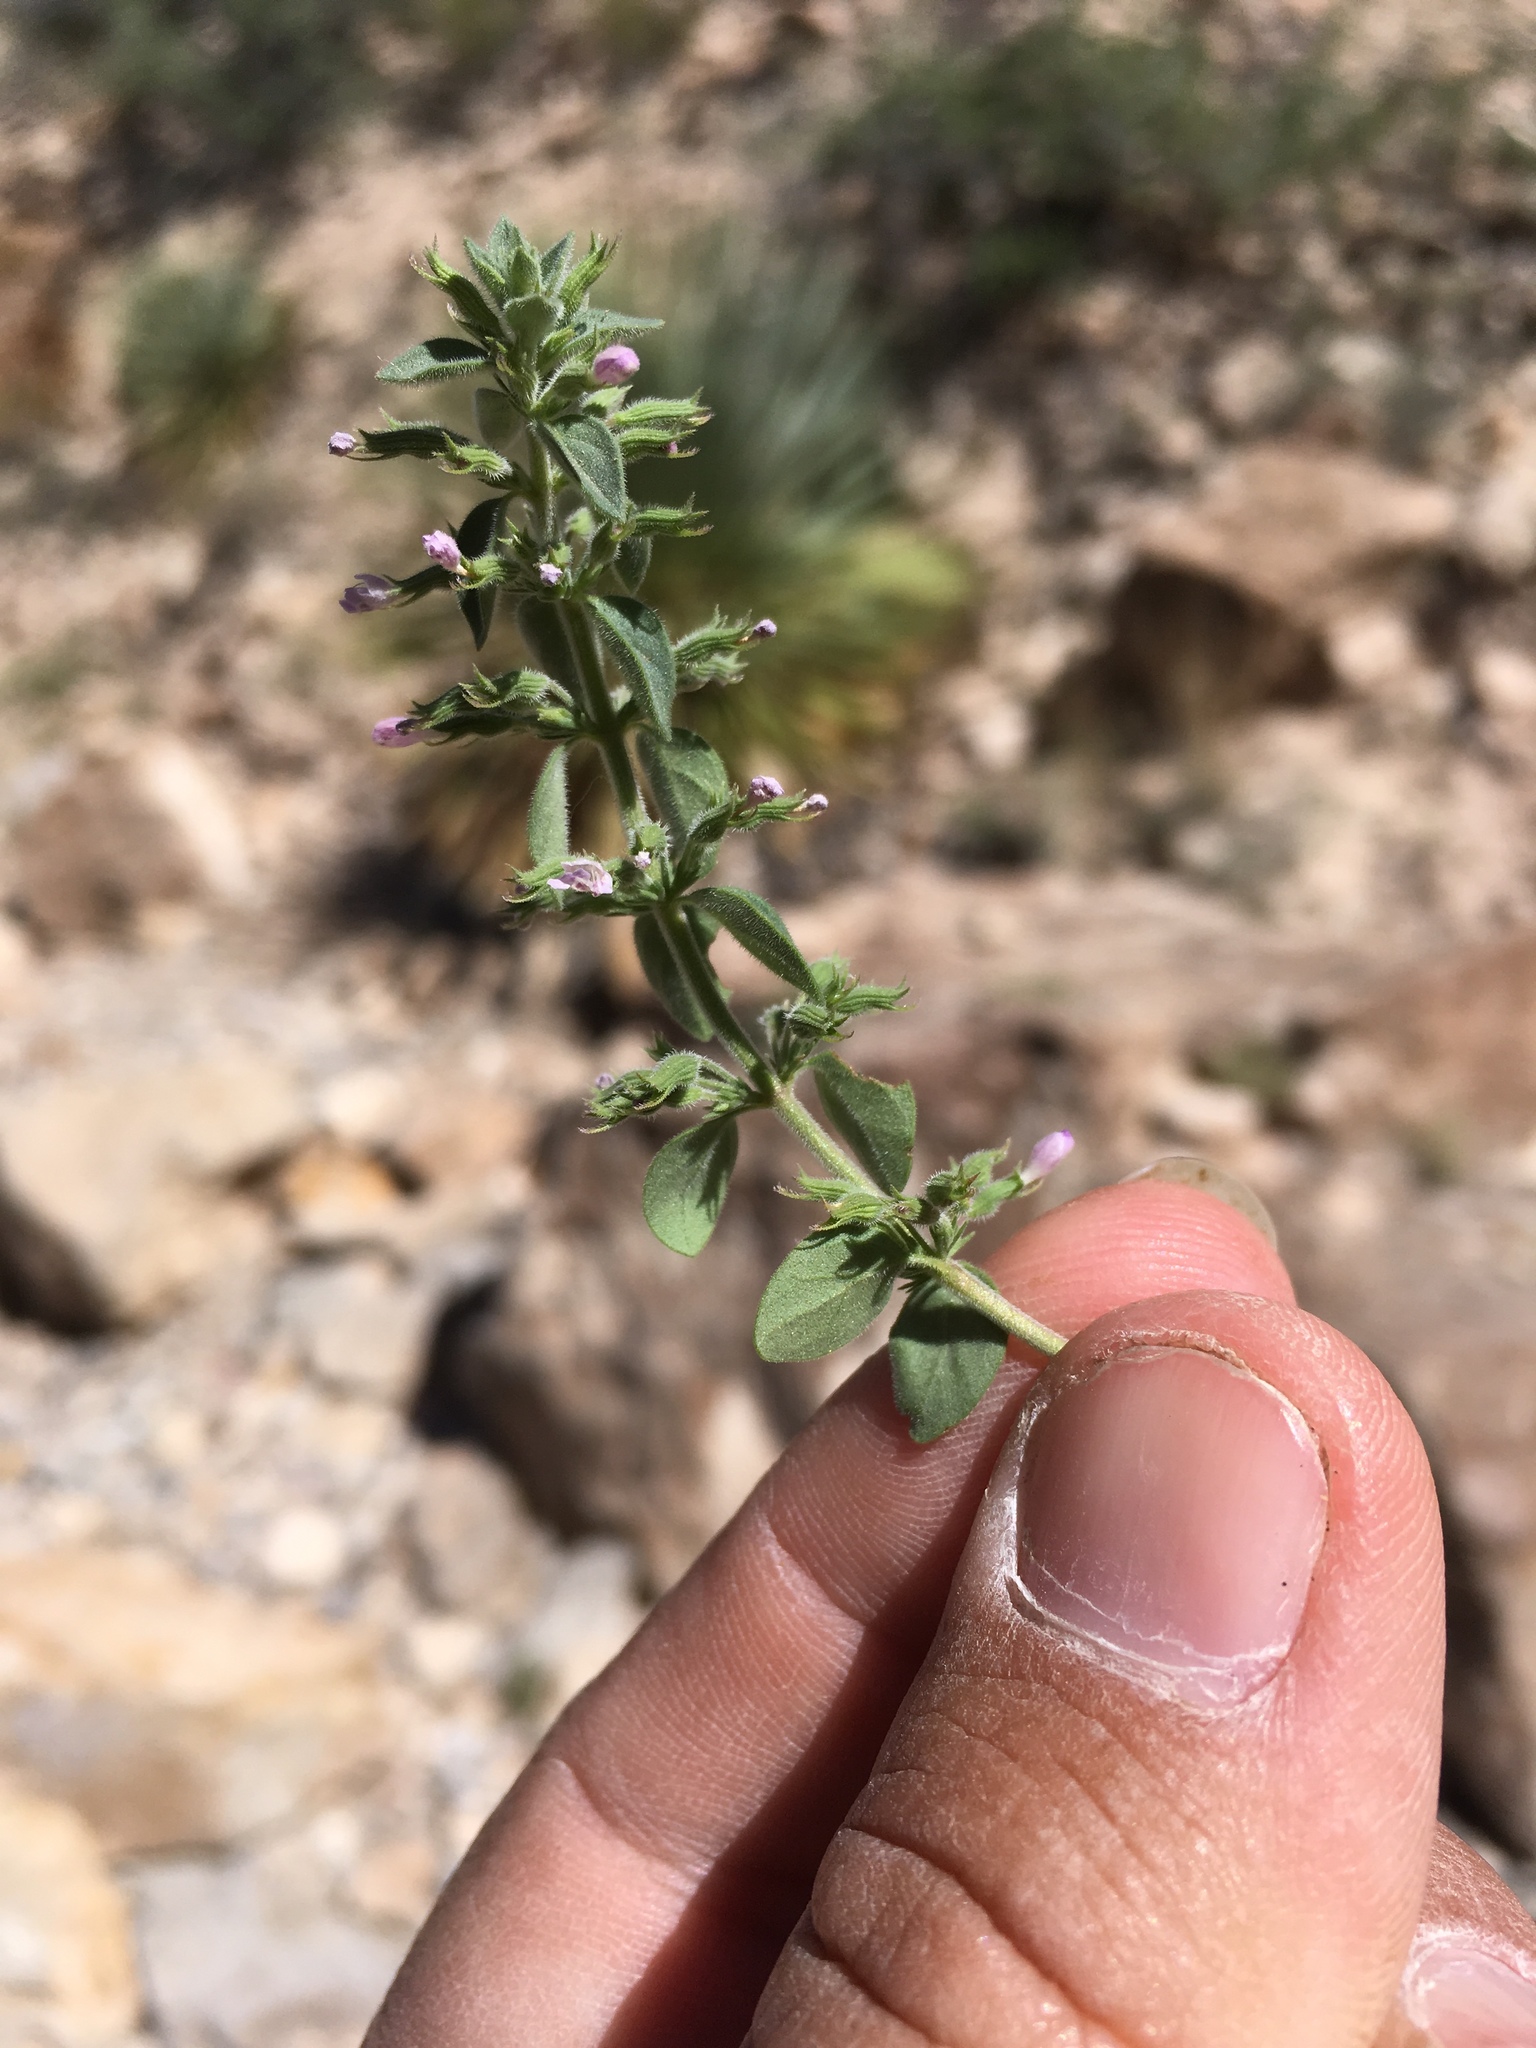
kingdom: Plantae
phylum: Tracheophyta
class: Magnoliopsida
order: Lamiales
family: Lamiaceae
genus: Hedeoma
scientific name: Hedeoma nana
